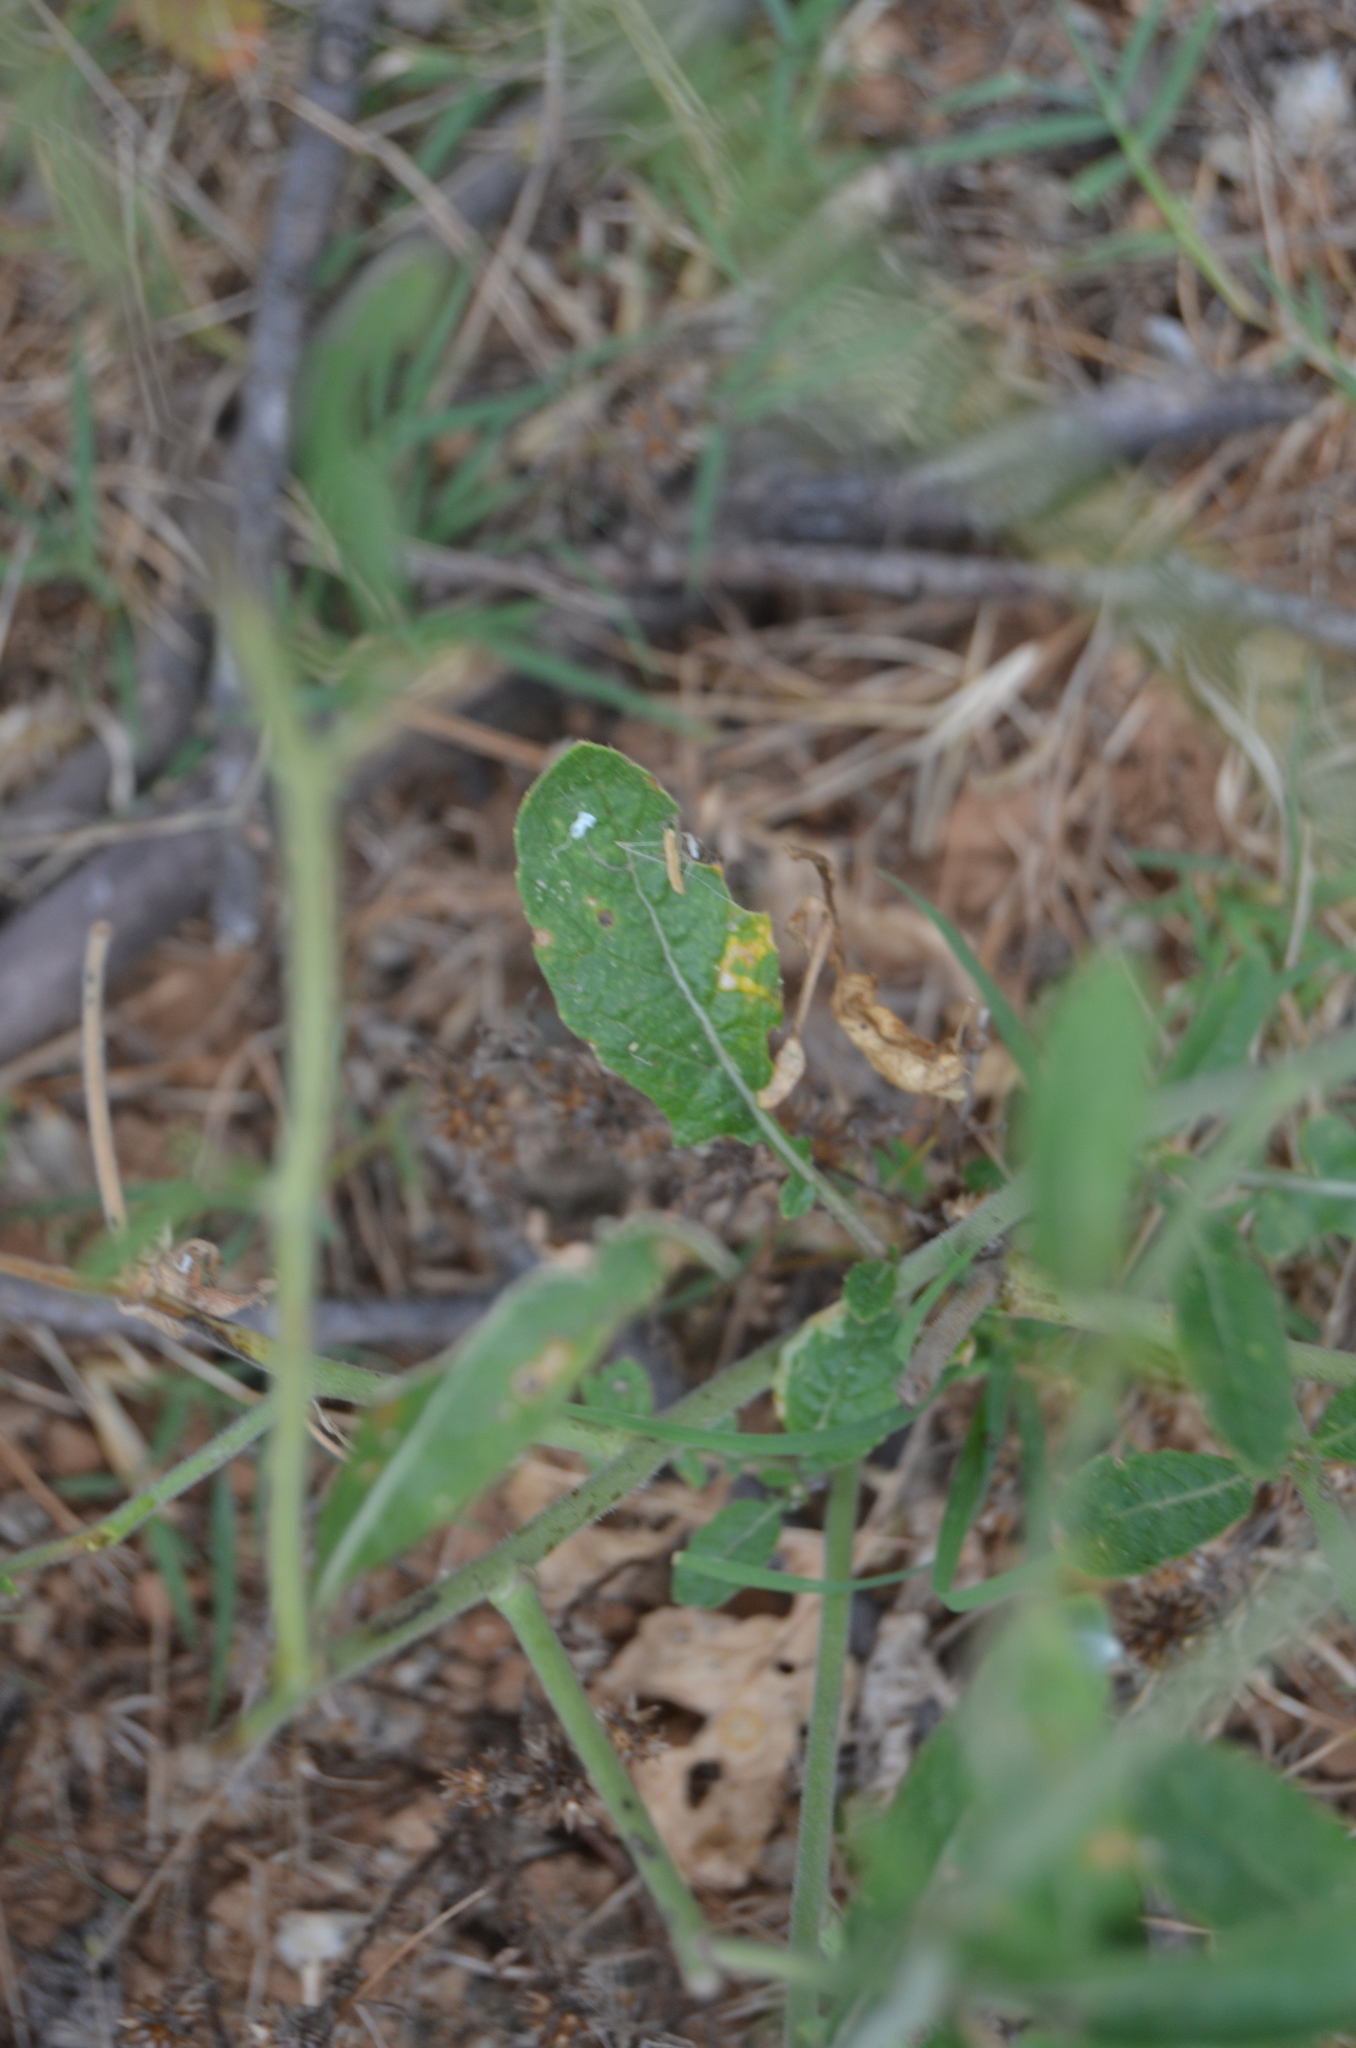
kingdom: Plantae
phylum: Tracheophyta
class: Magnoliopsida
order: Brassicales
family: Brassicaceae
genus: Hirschfeldia
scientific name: Hirschfeldia incana
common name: Hoary mustard
